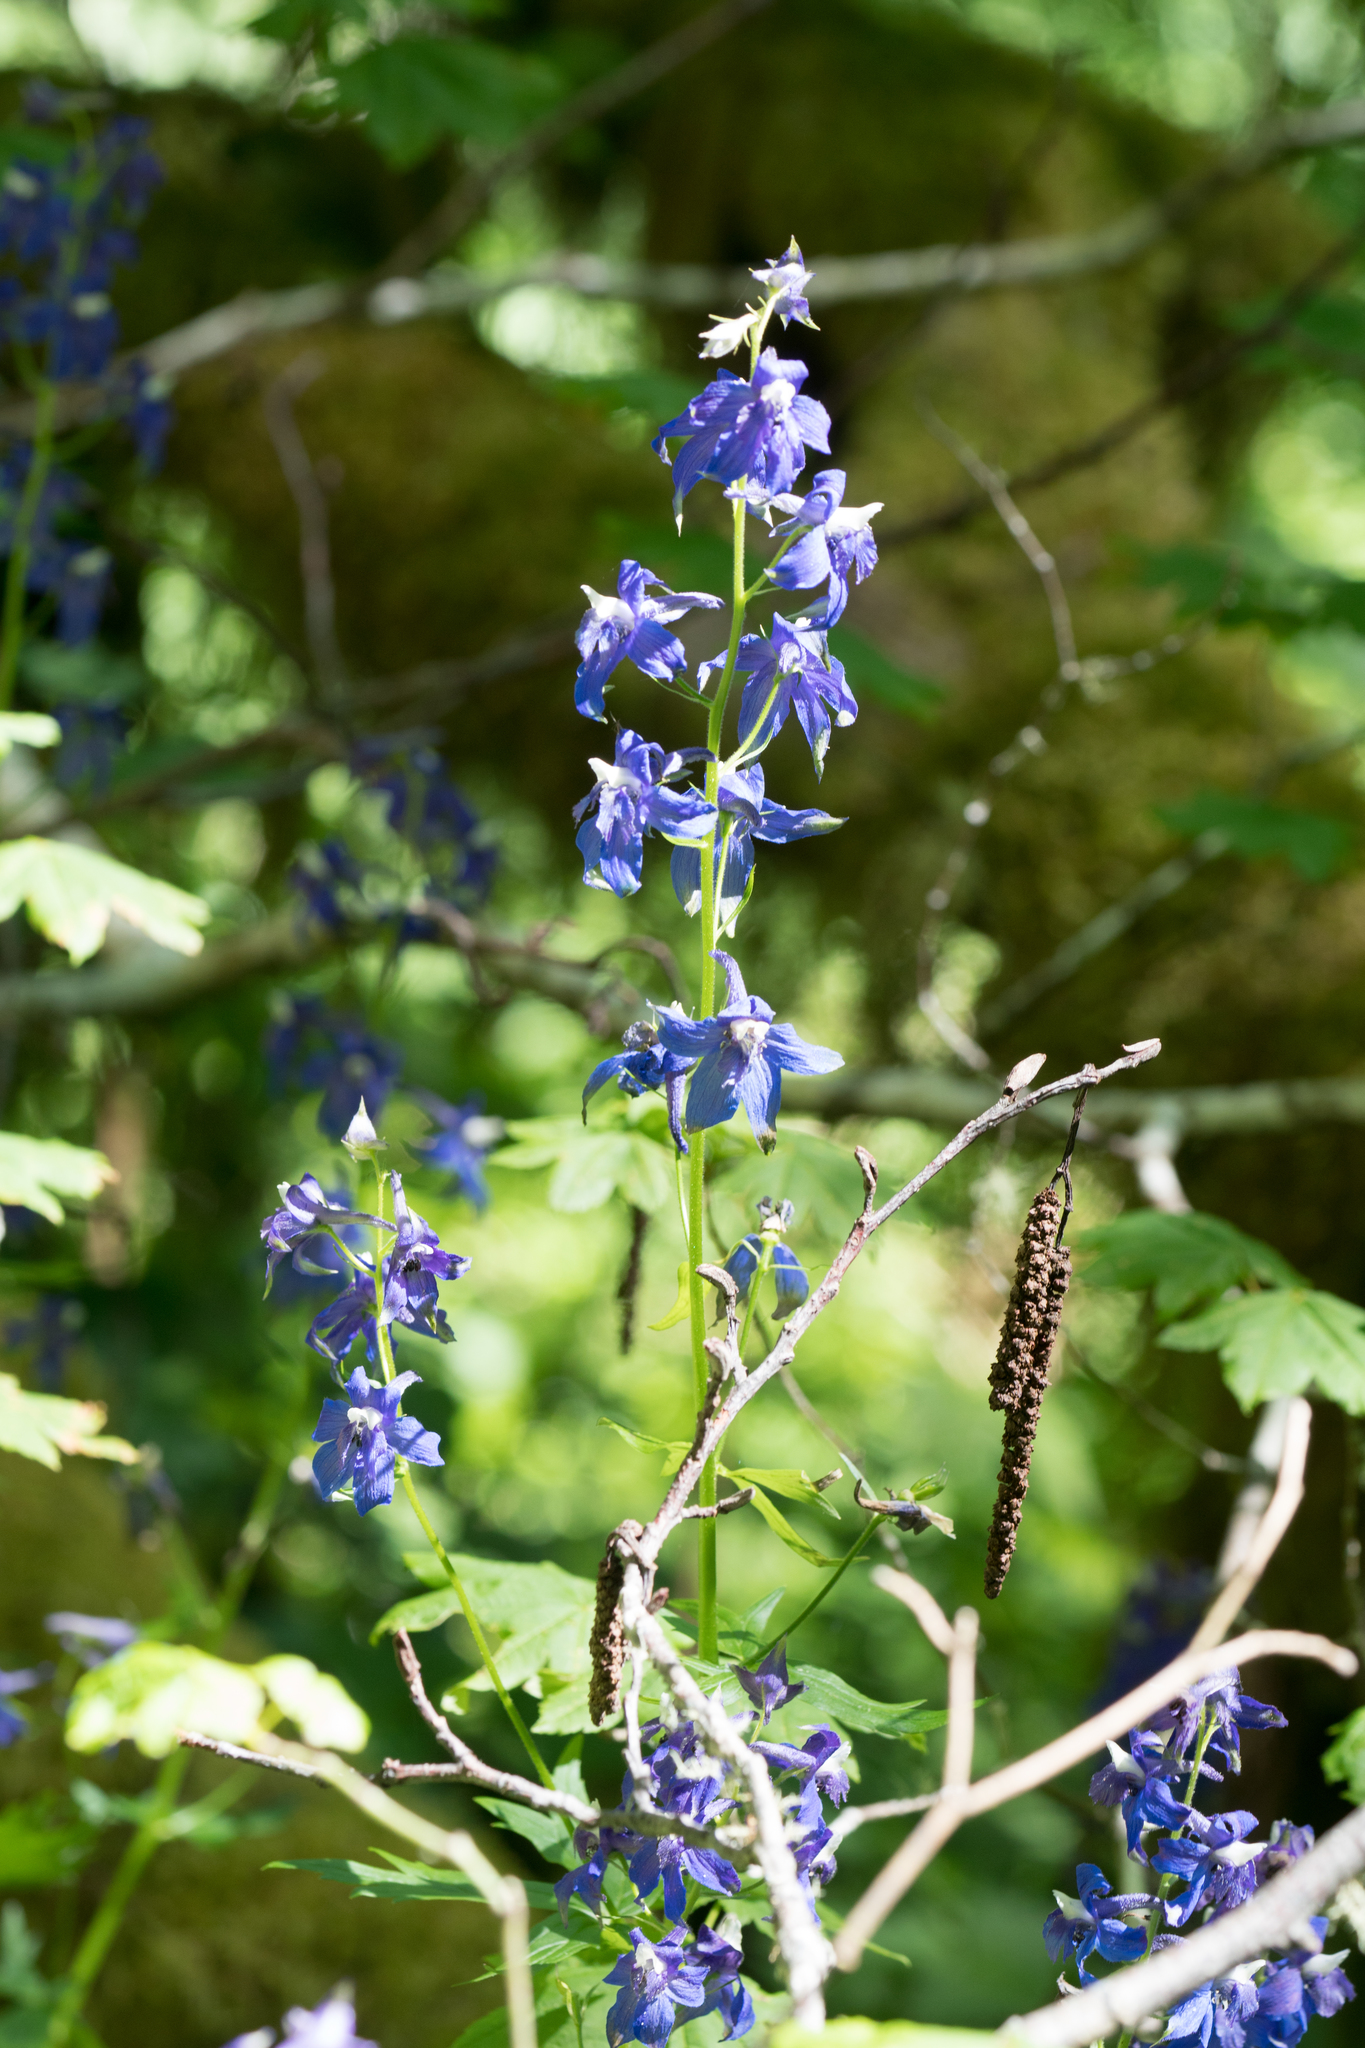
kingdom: Plantae
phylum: Tracheophyta
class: Magnoliopsida
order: Ranunculales
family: Ranunculaceae
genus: Delphinium
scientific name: Delphinium trolliifolium
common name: Cow-poison
